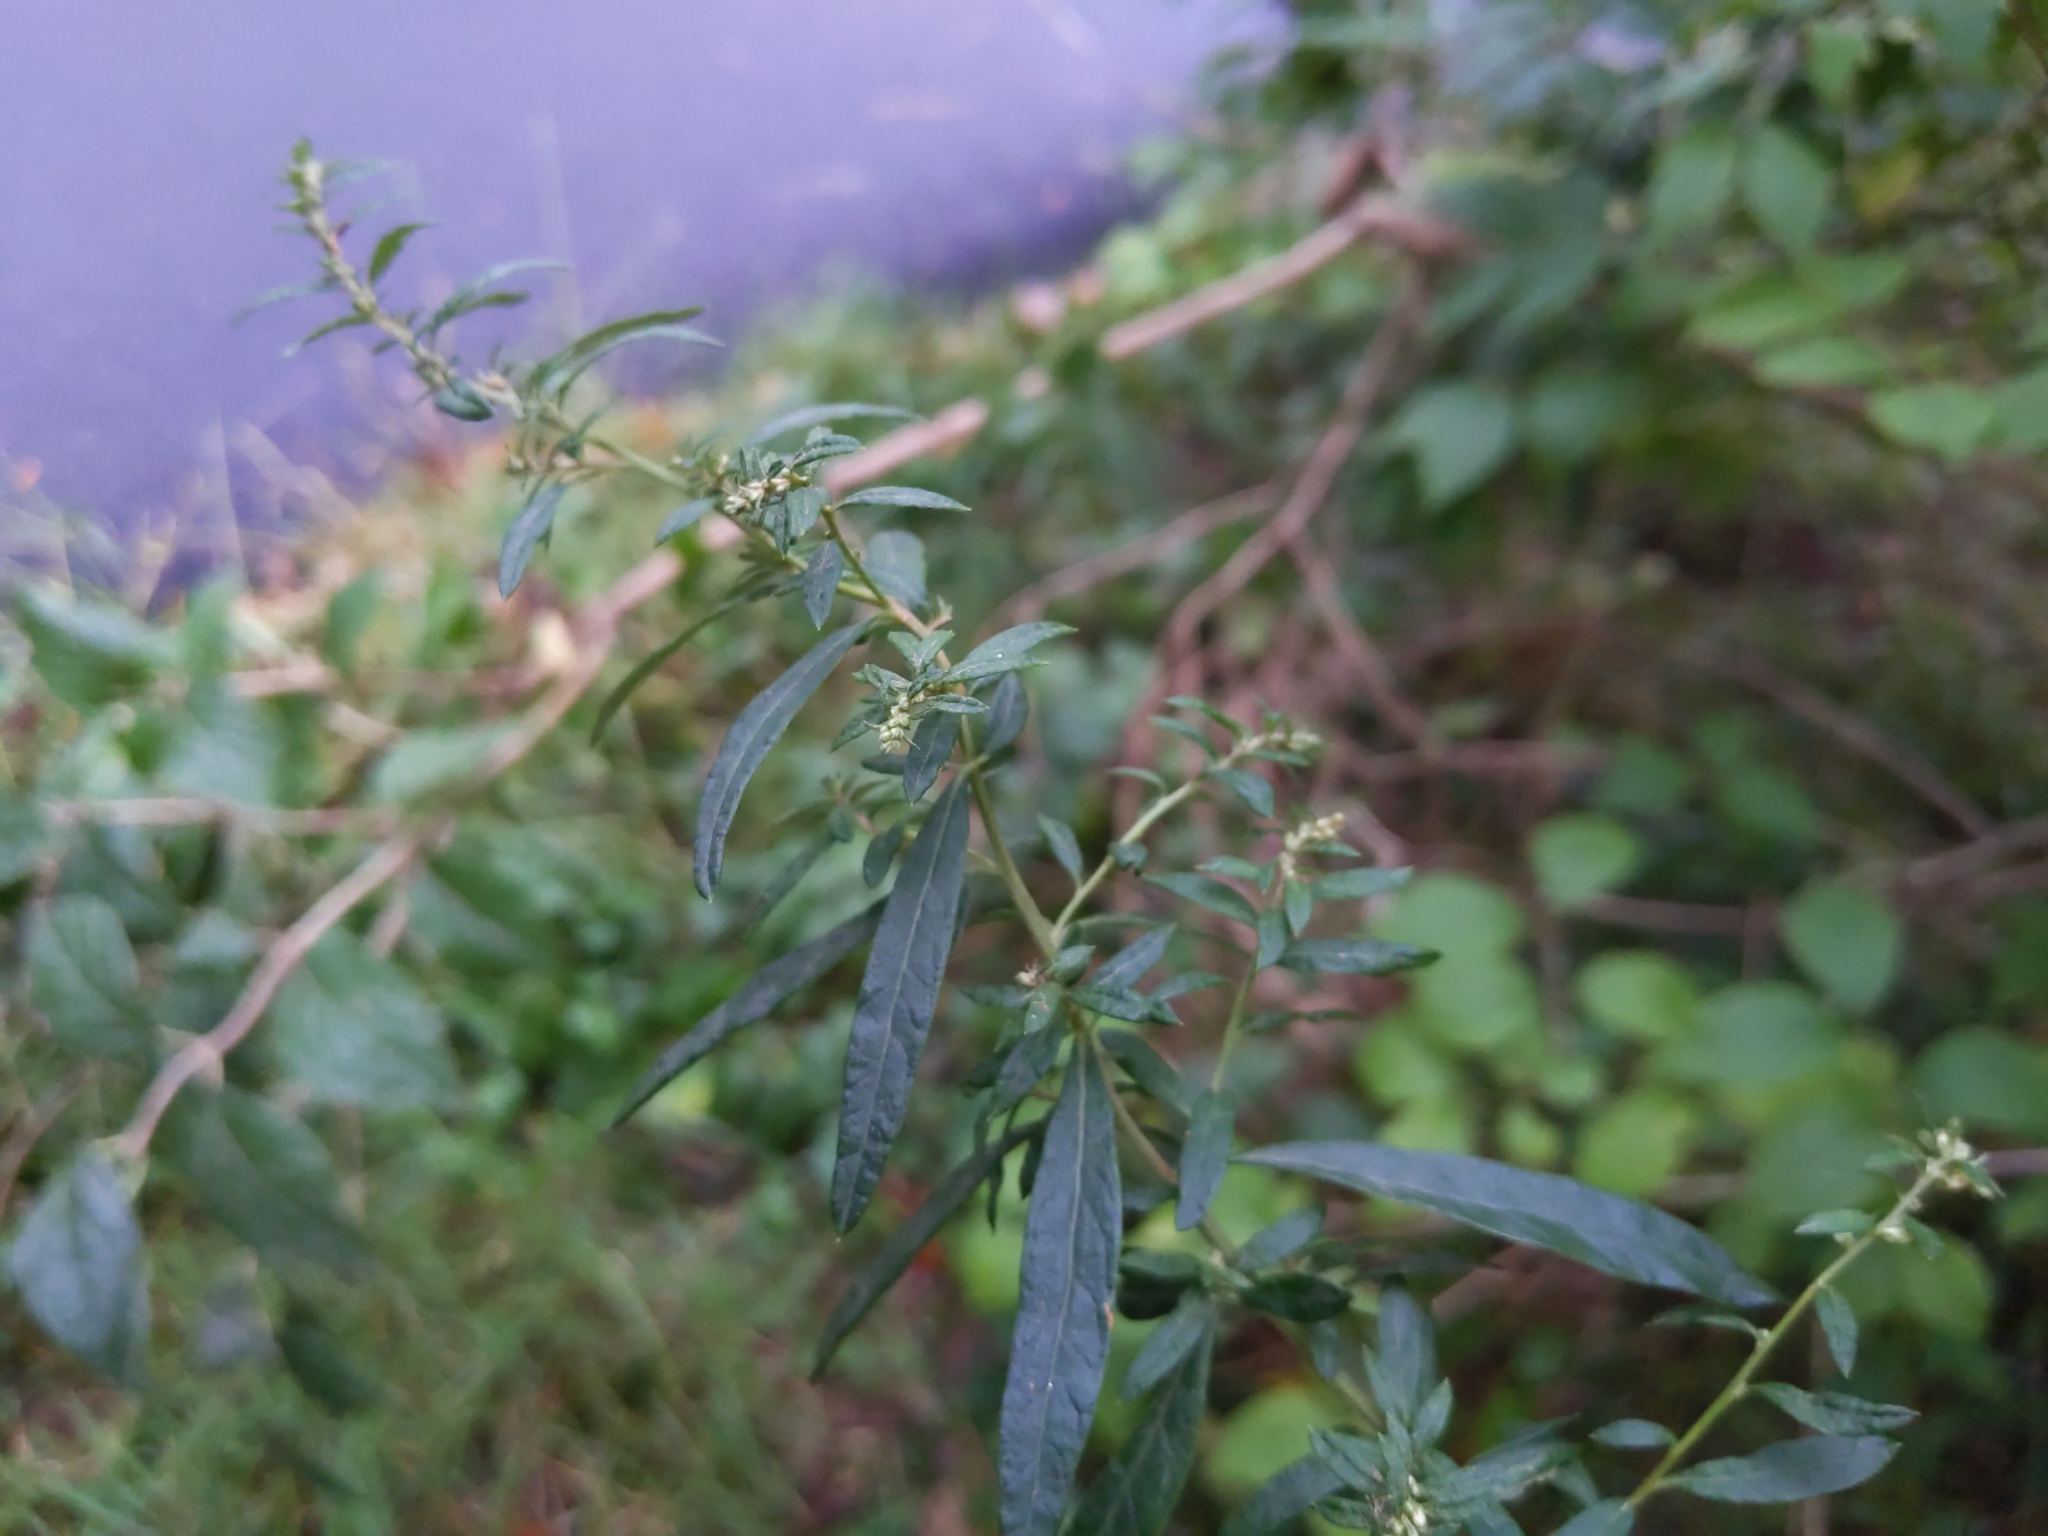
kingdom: Plantae
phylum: Tracheophyta
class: Magnoliopsida
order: Asterales
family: Asteraceae
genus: Artemisia
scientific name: Artemisia vulgaris
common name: Mugwort
